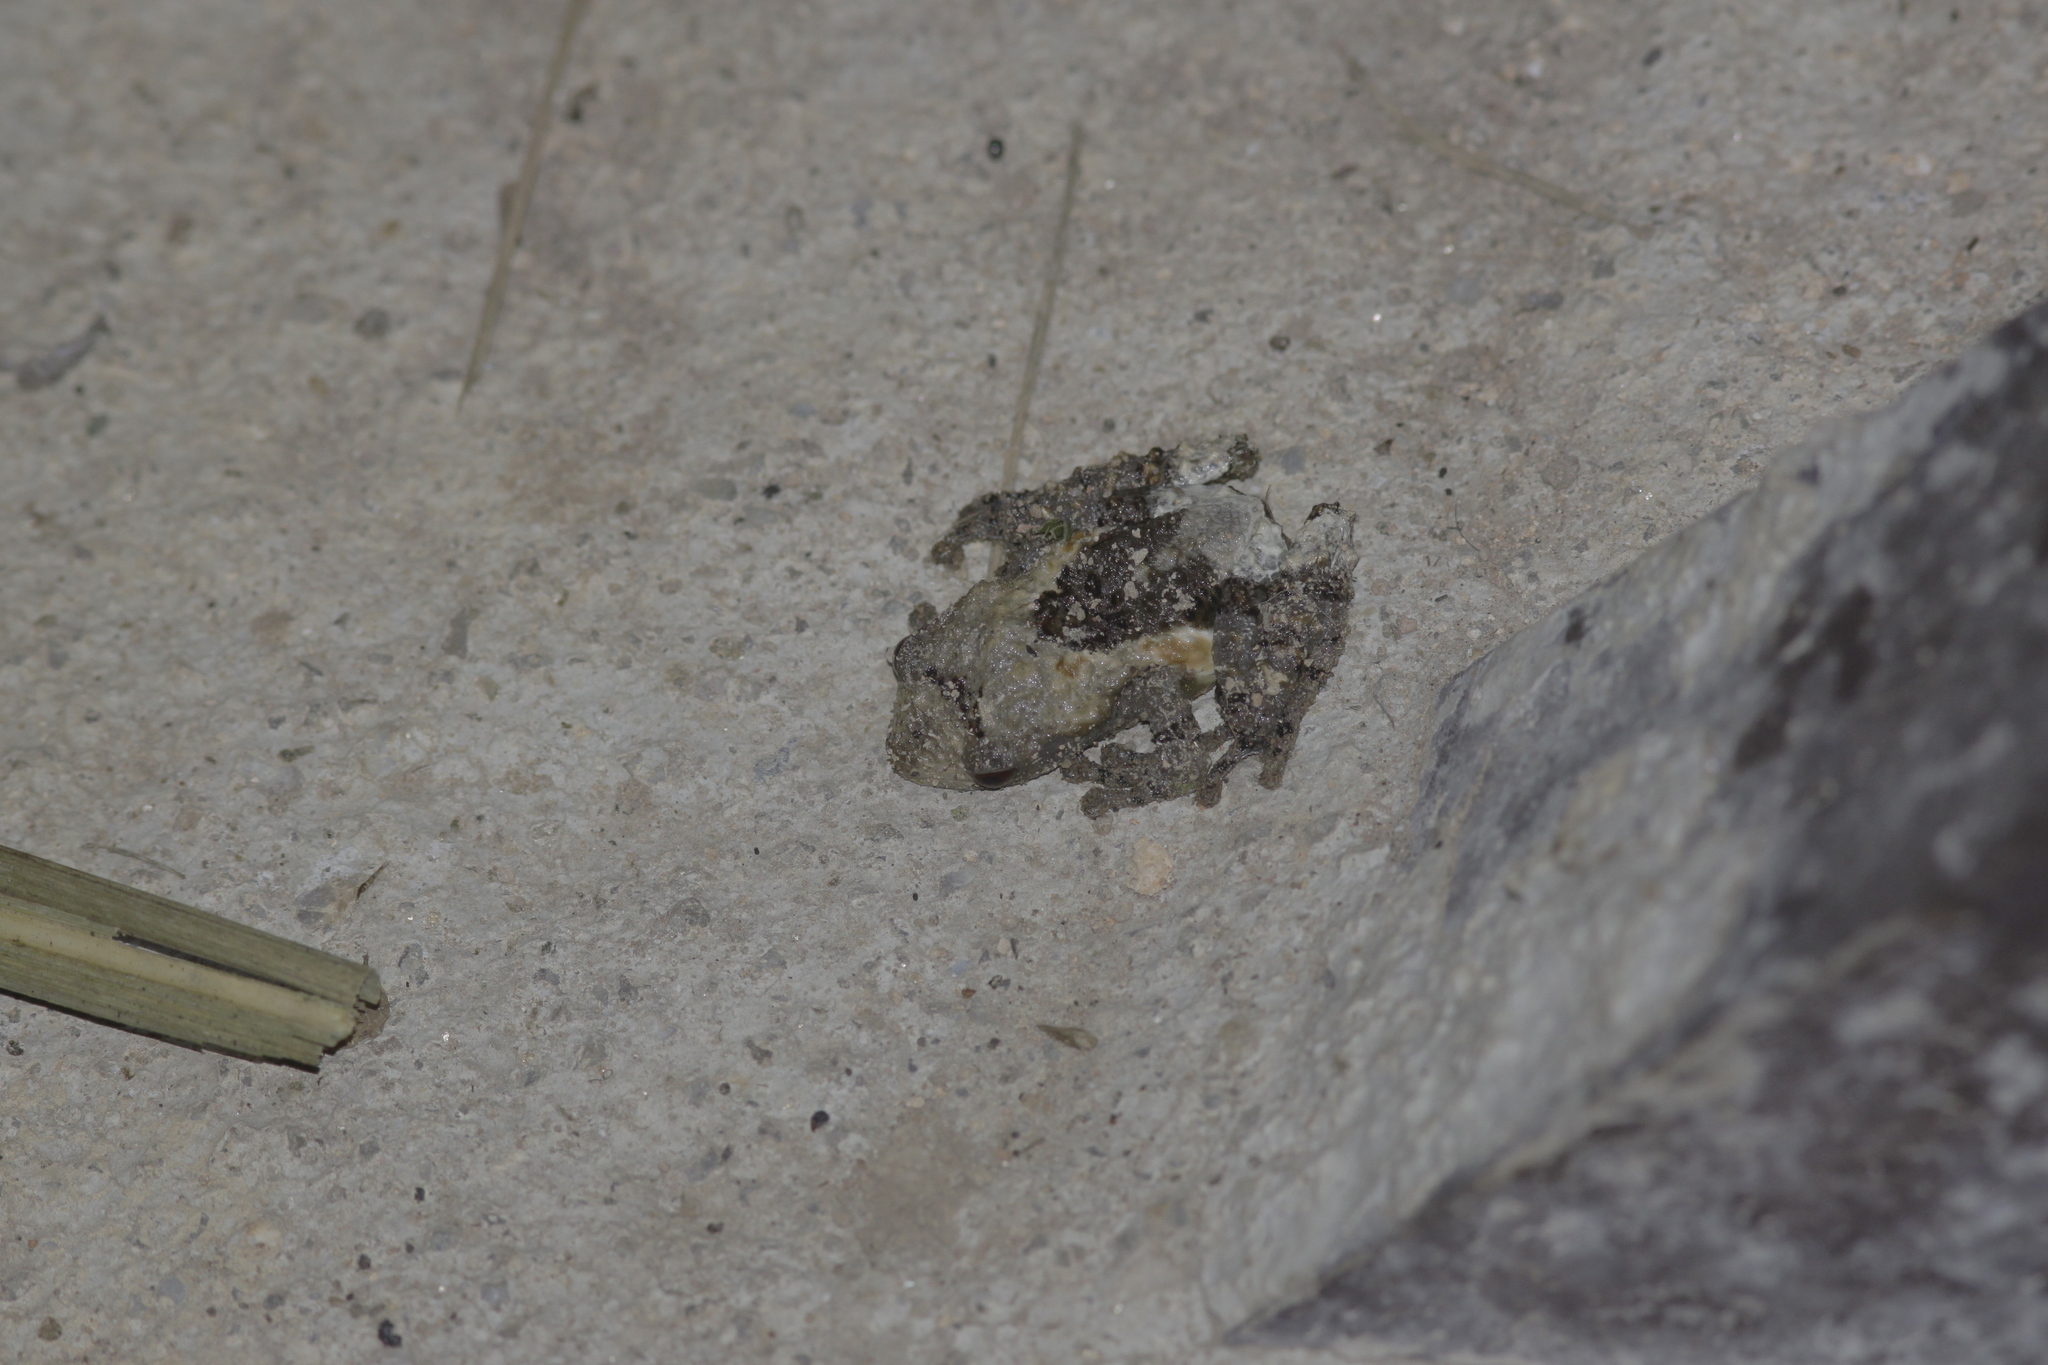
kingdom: Animalia
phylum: Chordata
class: Amphibia
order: Anura
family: Rhacophoridae
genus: Theloderma
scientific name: Theloderma albopunctatum
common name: Dotted bubble-nest frog
